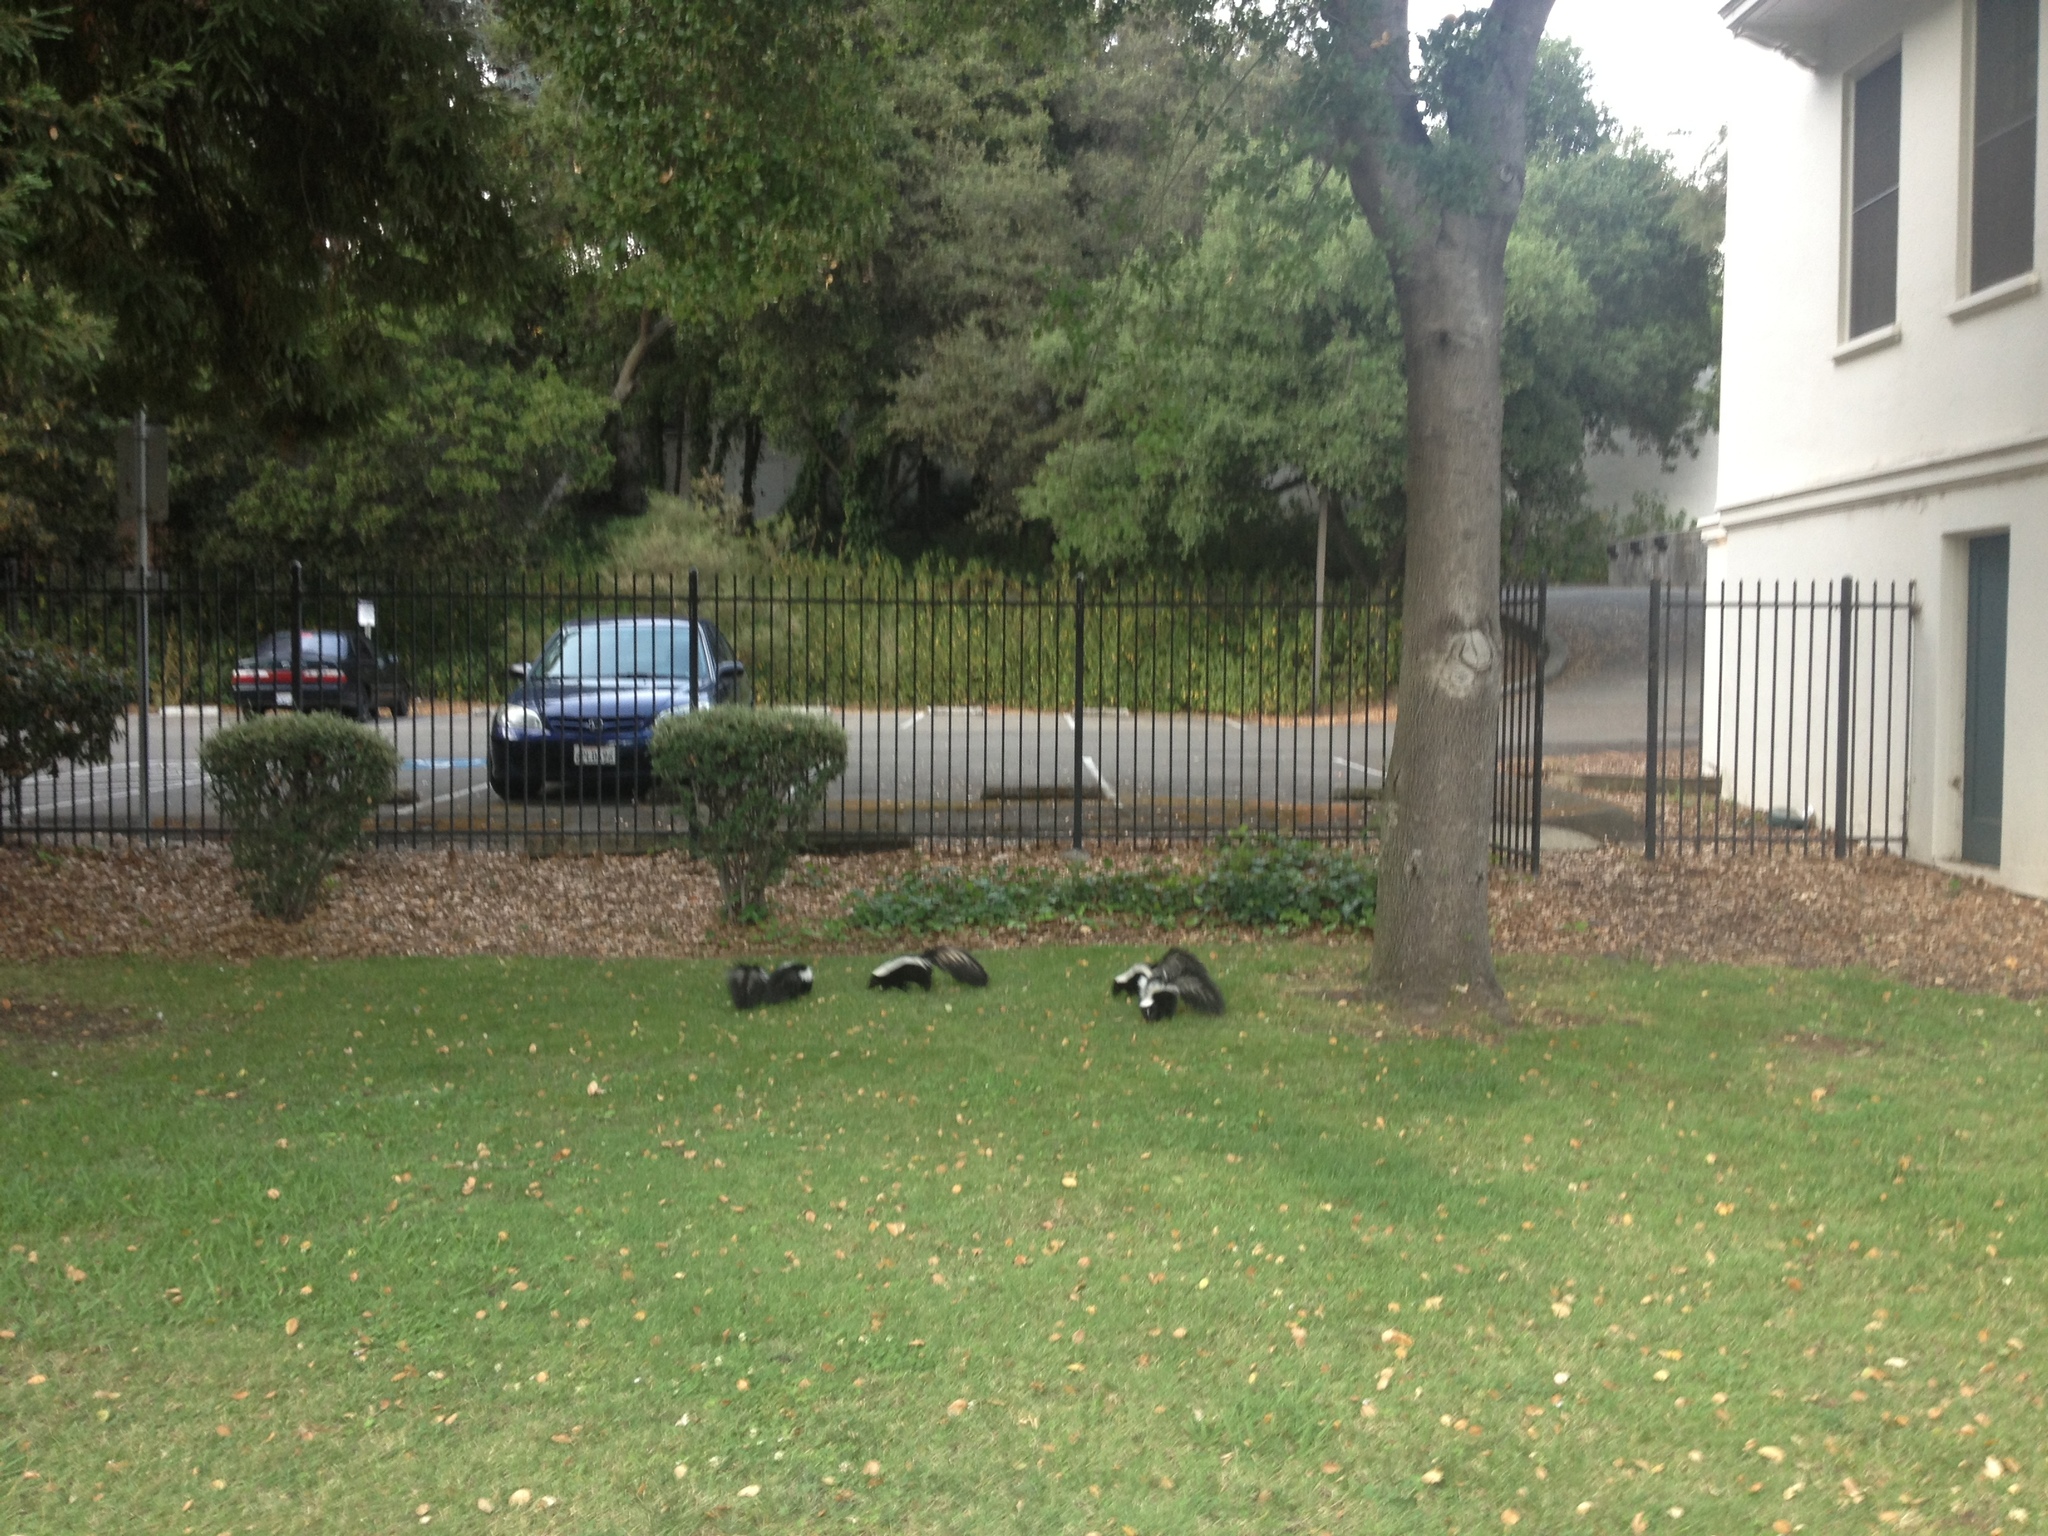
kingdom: Animalia
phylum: Chordata
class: Mammalia
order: Carnivora
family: Mephitidae
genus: Mephitis
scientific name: Mephitis mephitis
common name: Striped skunk
